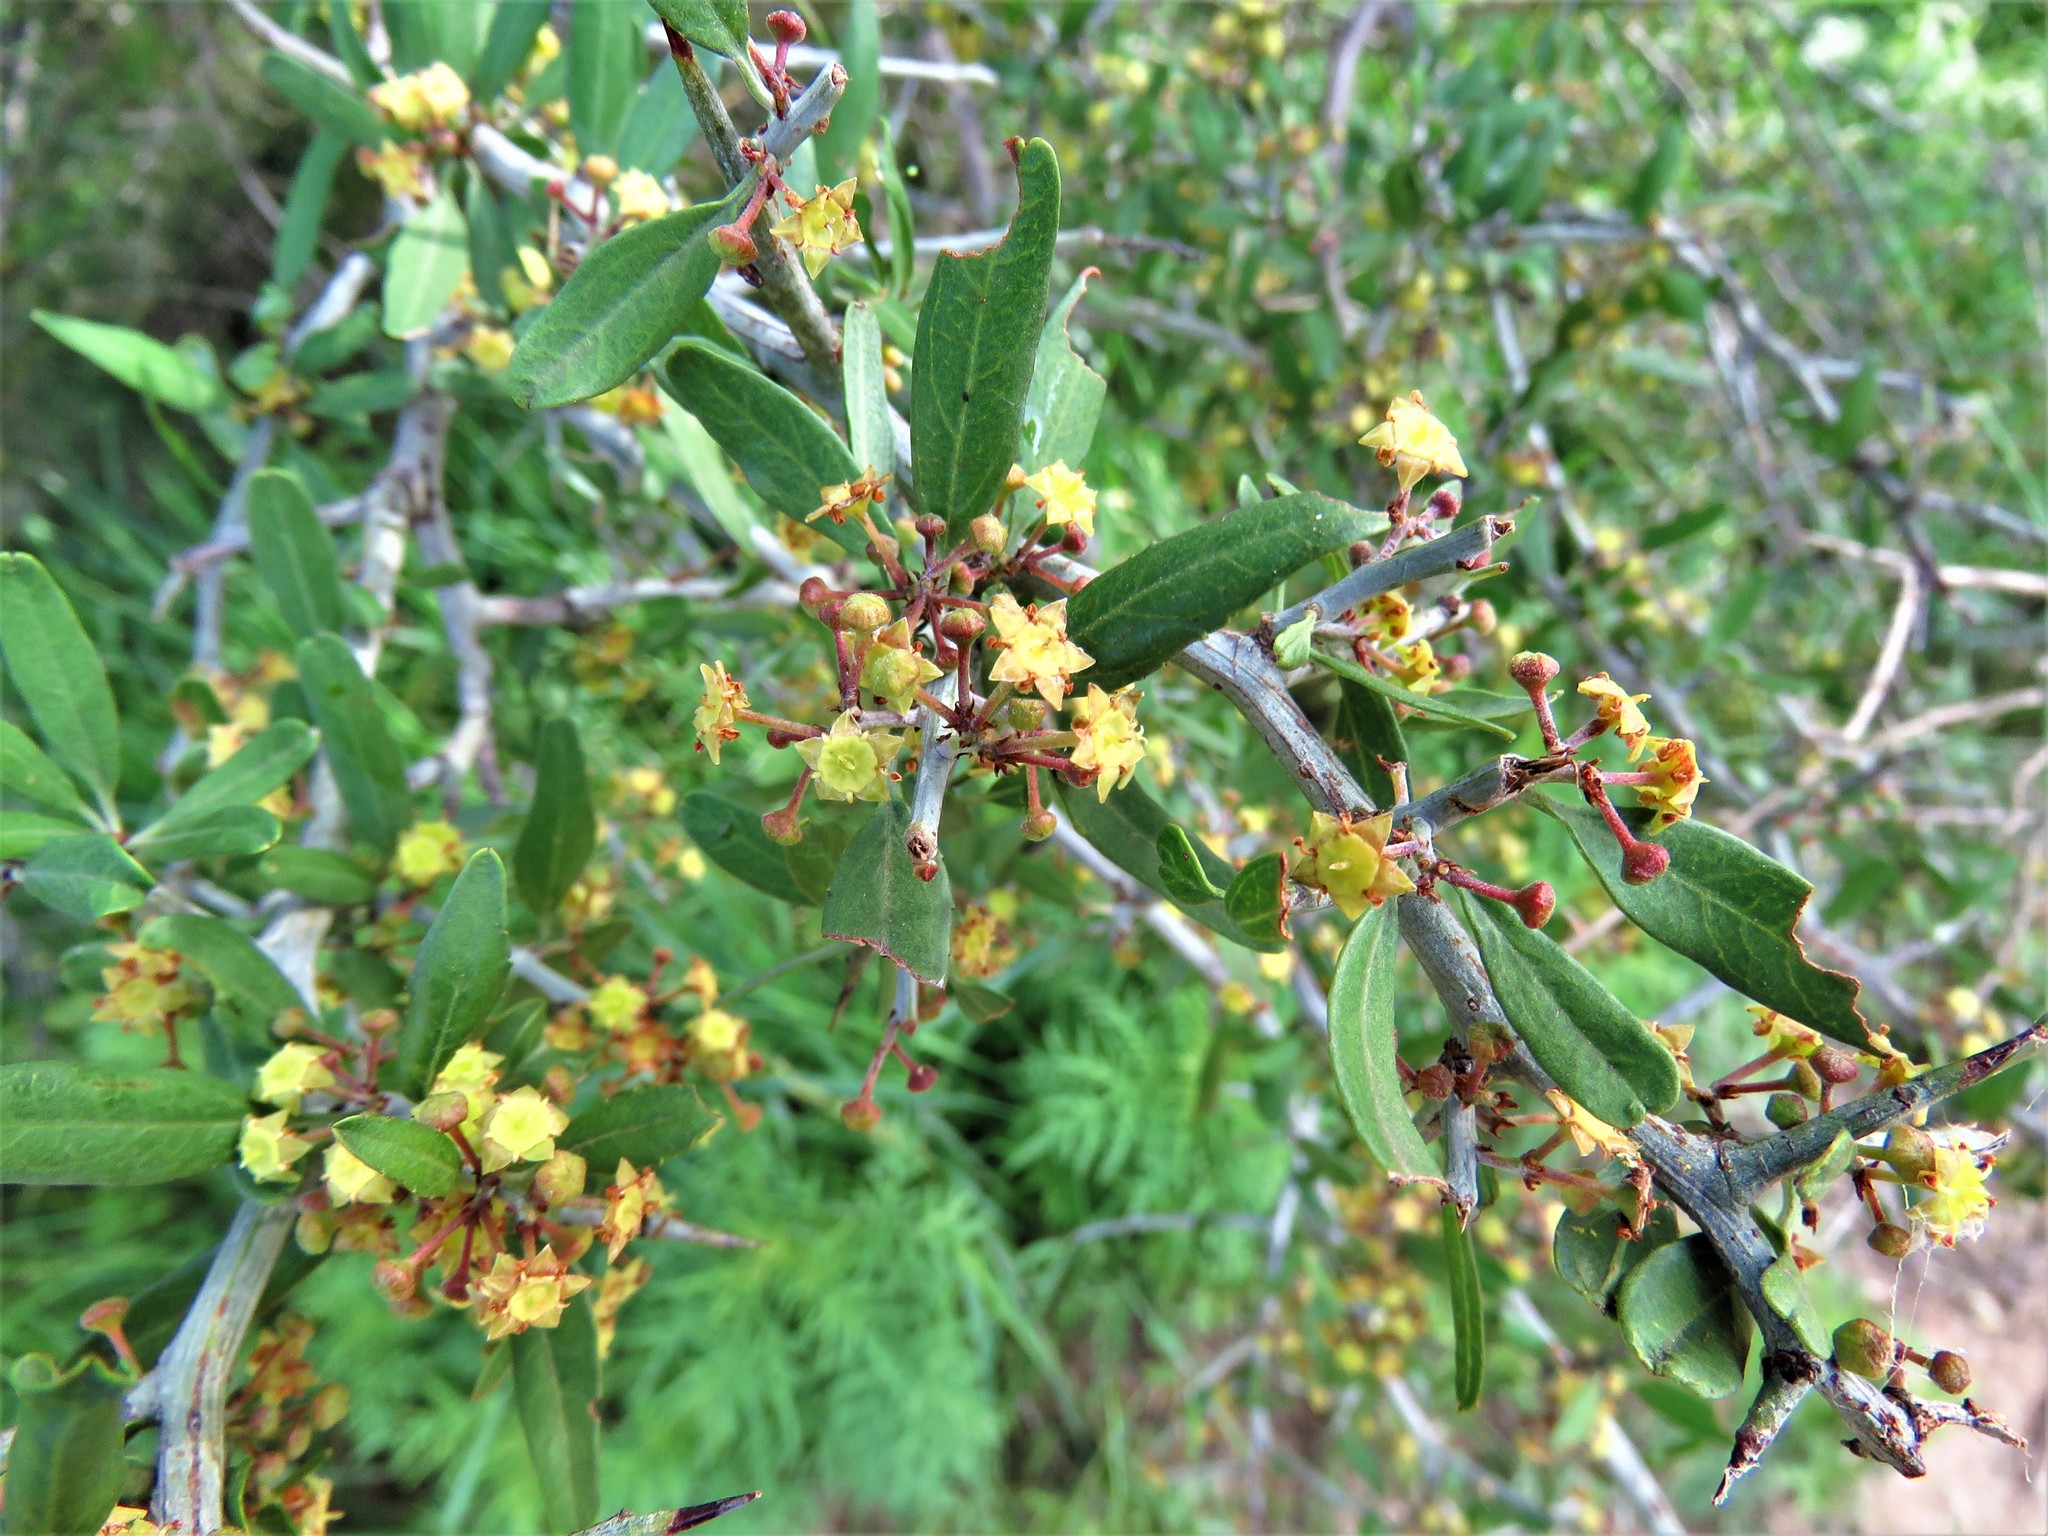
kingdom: Plantae
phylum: Tracheophyta
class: Magnoliopsida
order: Rosales
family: Rhamnaceae
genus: Sarcomphalus
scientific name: Sarcomphalus obtusifolius
